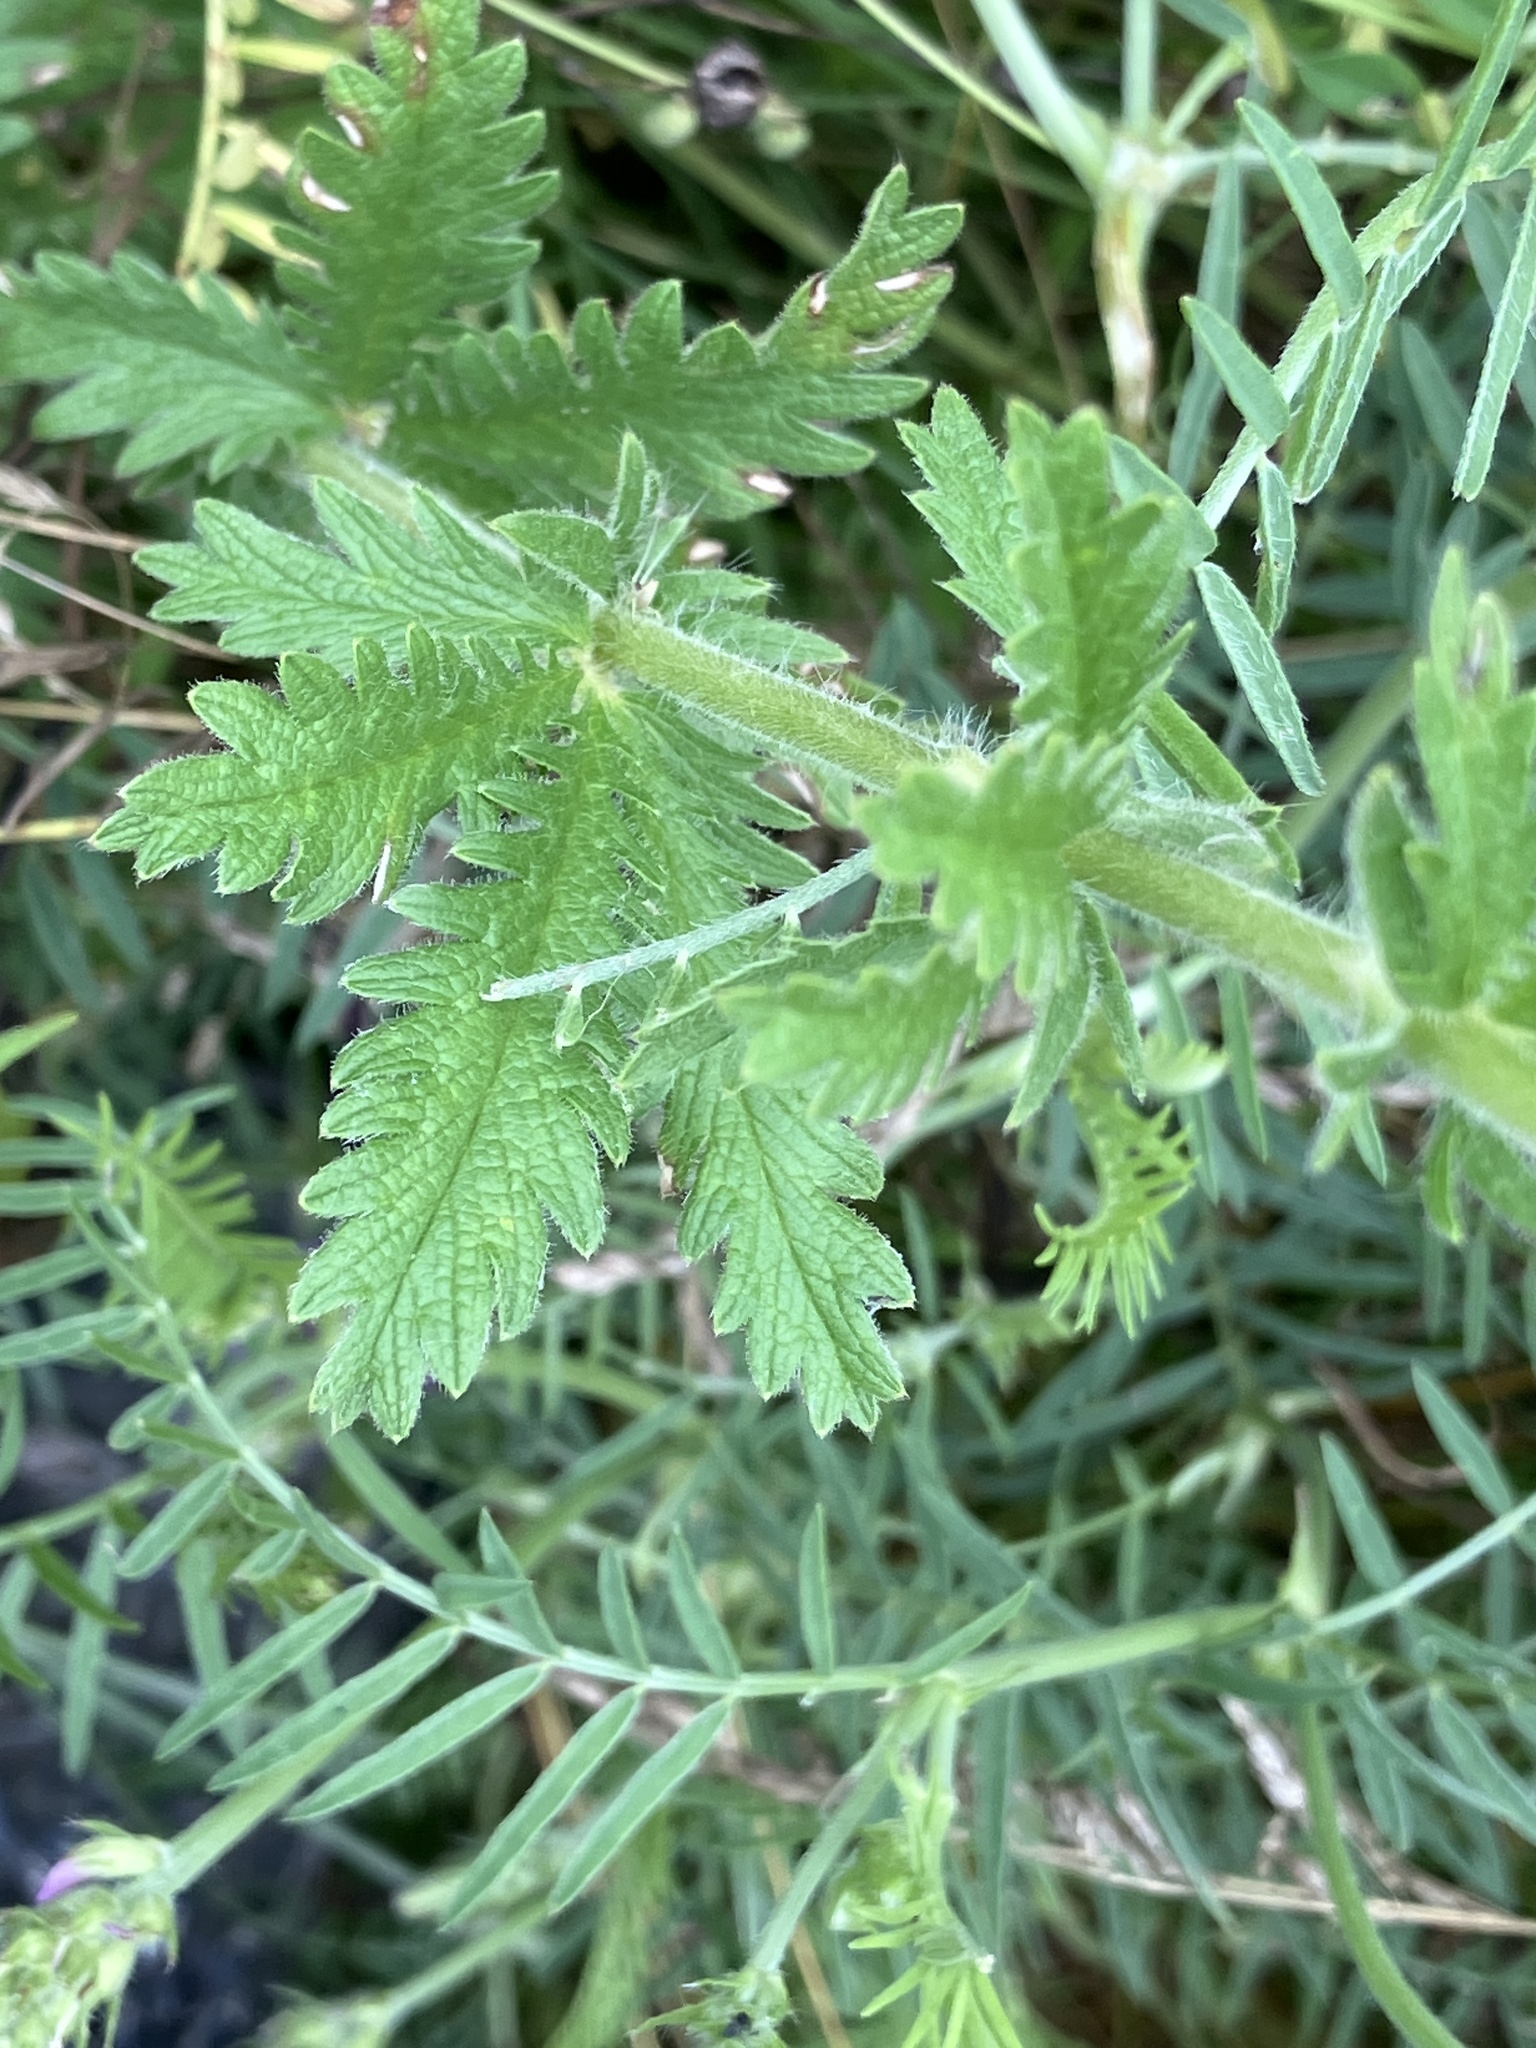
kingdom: Plantae
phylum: Tracheophyta
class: Magnoliopsida
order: Rosales
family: Rosaceae
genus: Potentilla
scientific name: Potentilla recta
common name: Sulphur cinquefoil
